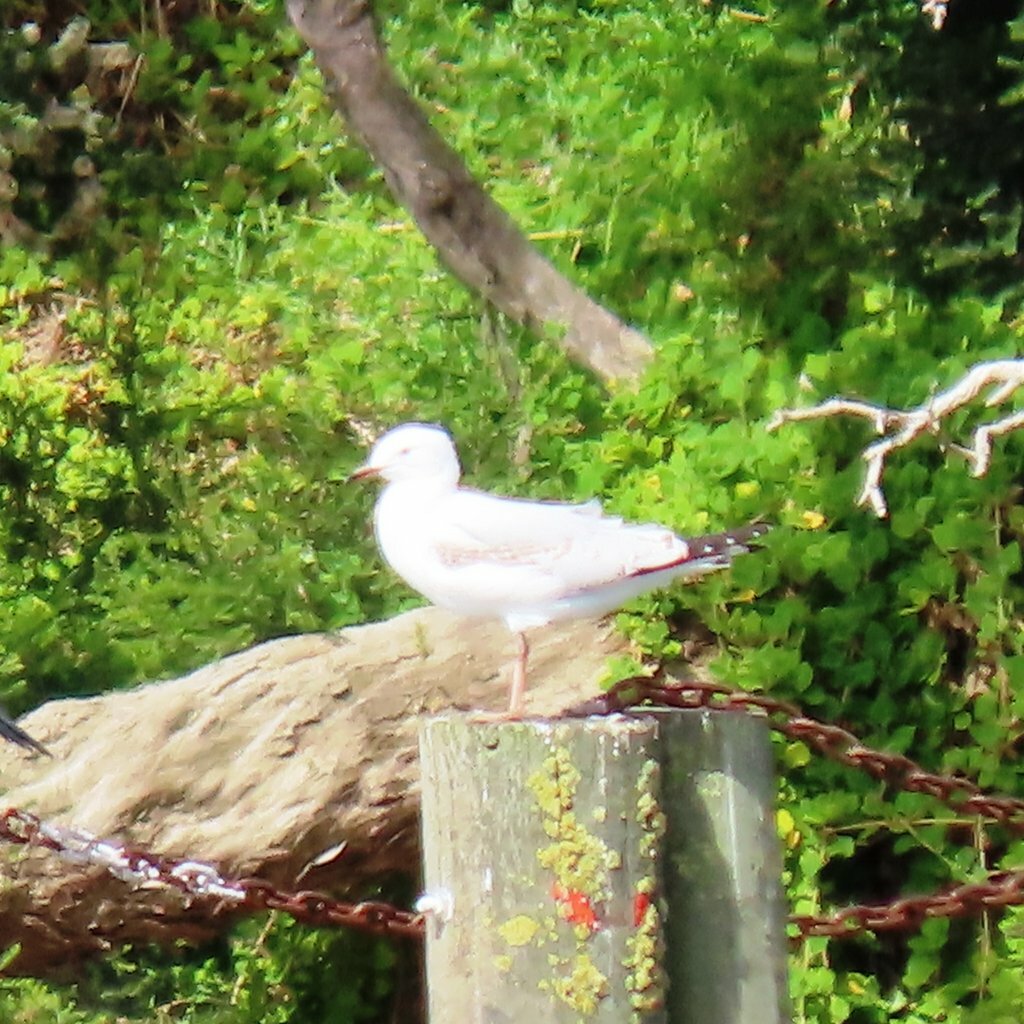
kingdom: Animalia
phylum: Chordata
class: Aves
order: Charadriiformes
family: Laridae
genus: Chroicocephalus
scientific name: Chroicocephalus novaehollandiae
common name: Silver gull
